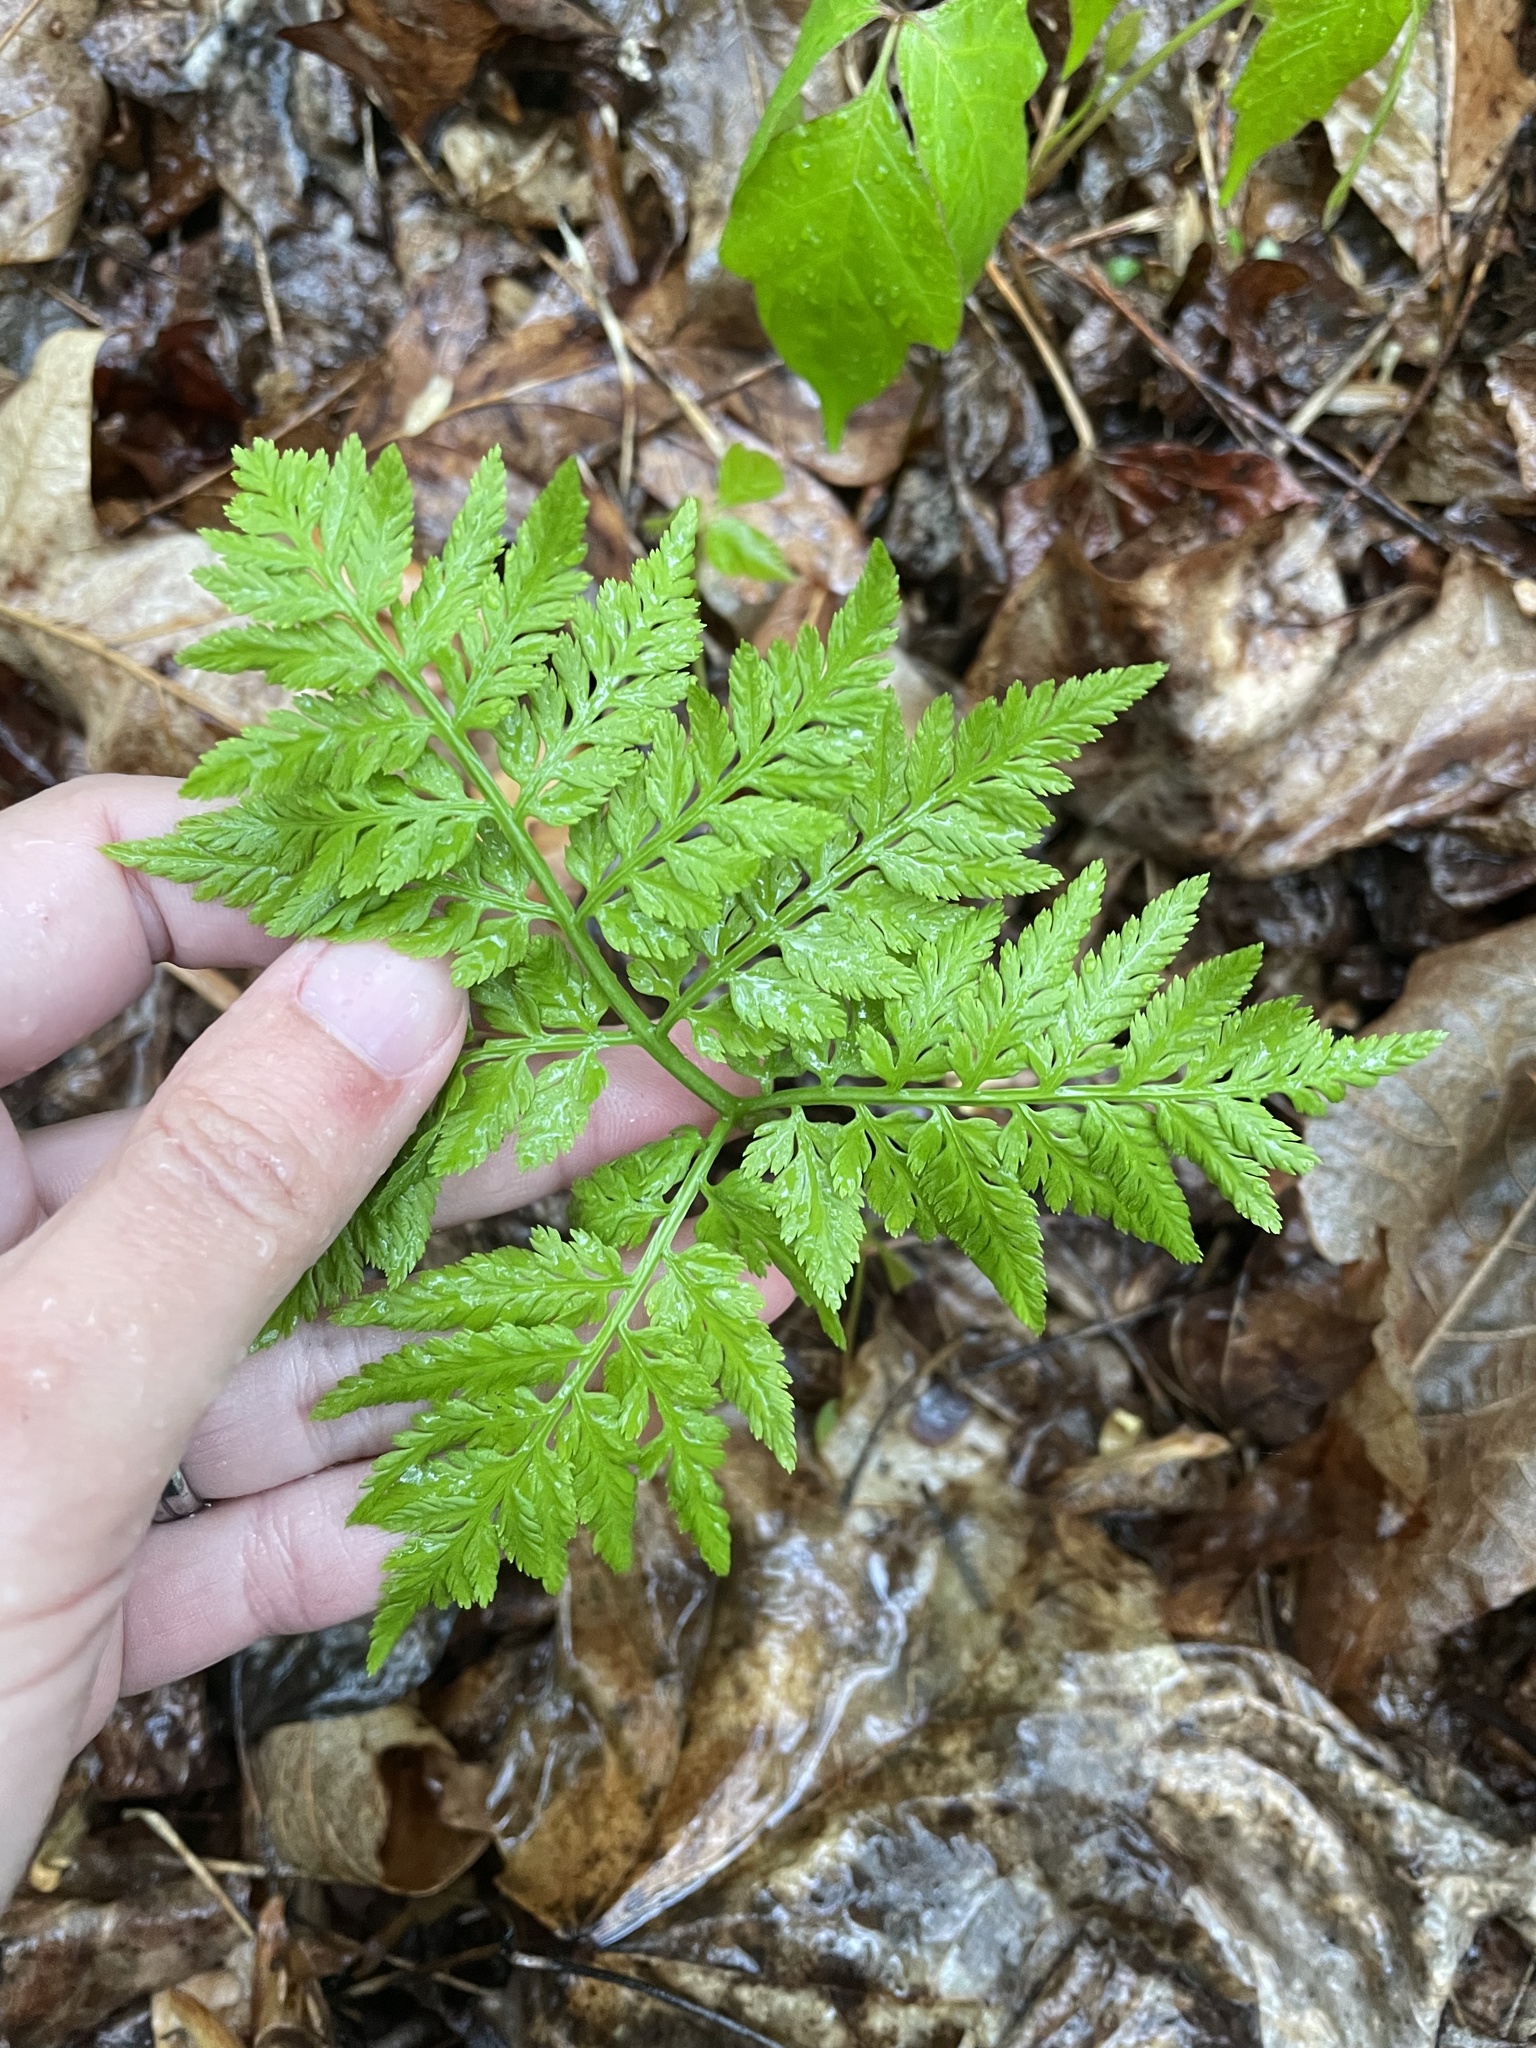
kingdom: Plantae
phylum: Tracheophyta
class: Polypodiopsida
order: Ophioglossales
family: Ophioglossaceae
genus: Botrypus
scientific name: Botrypus virginianus
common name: Common grapefern
